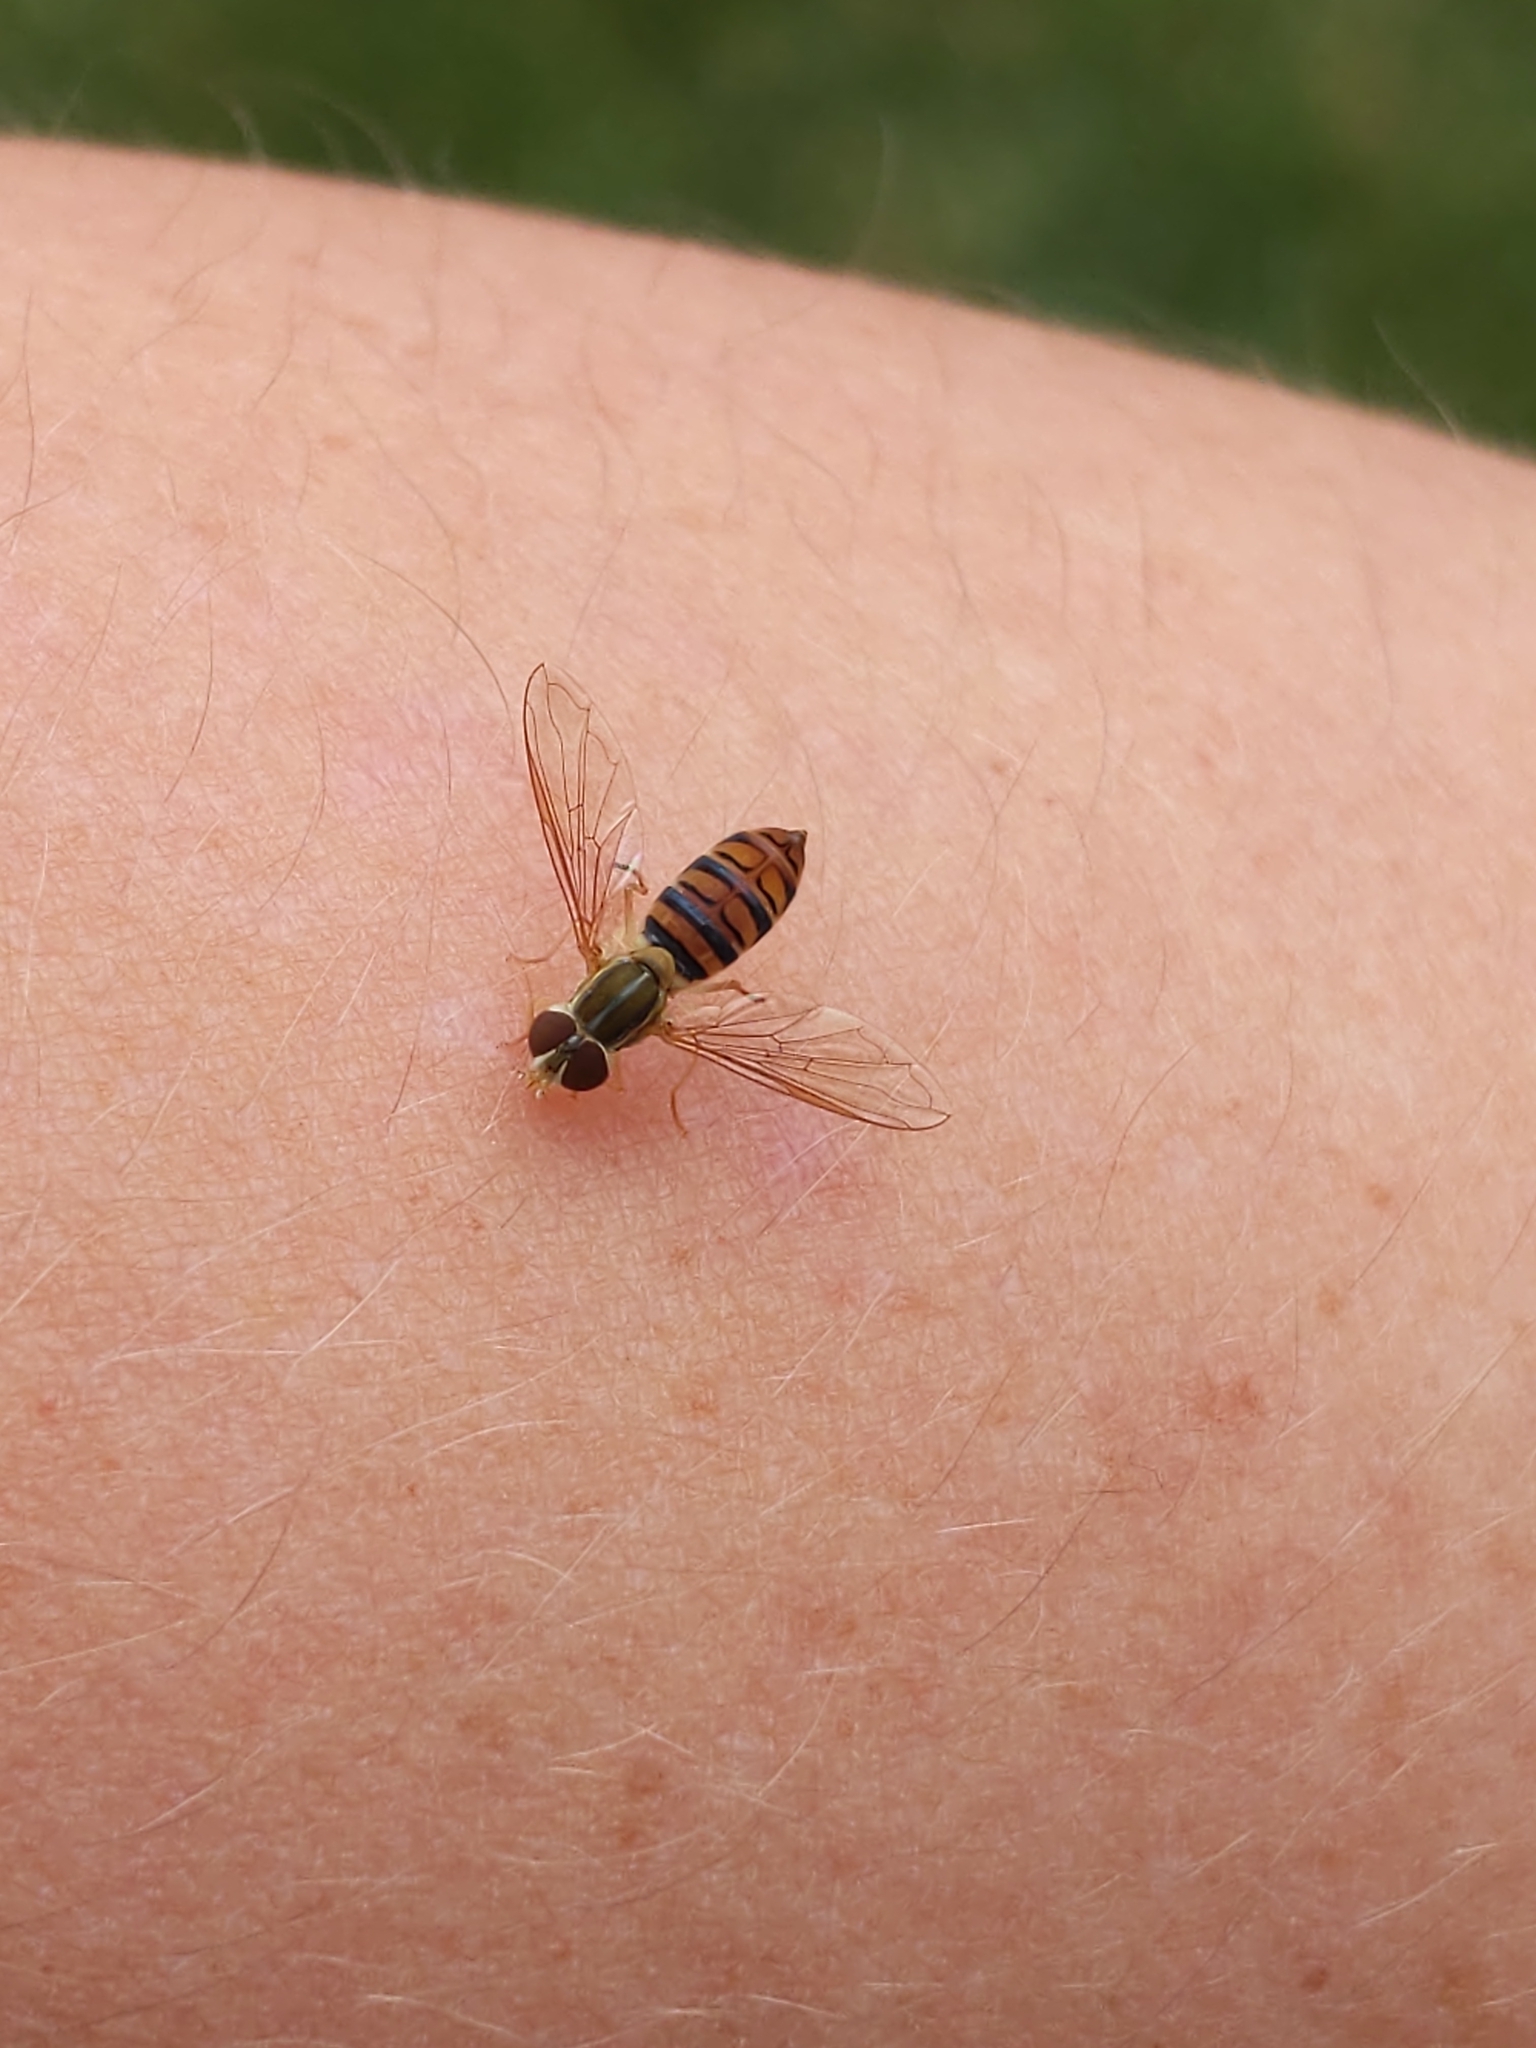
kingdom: Animalia
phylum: Arthropoda
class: Insecta
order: Diptera
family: Syrphidae
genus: Toxomerus
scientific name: Toxomerus politus
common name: Maize calligrapher
